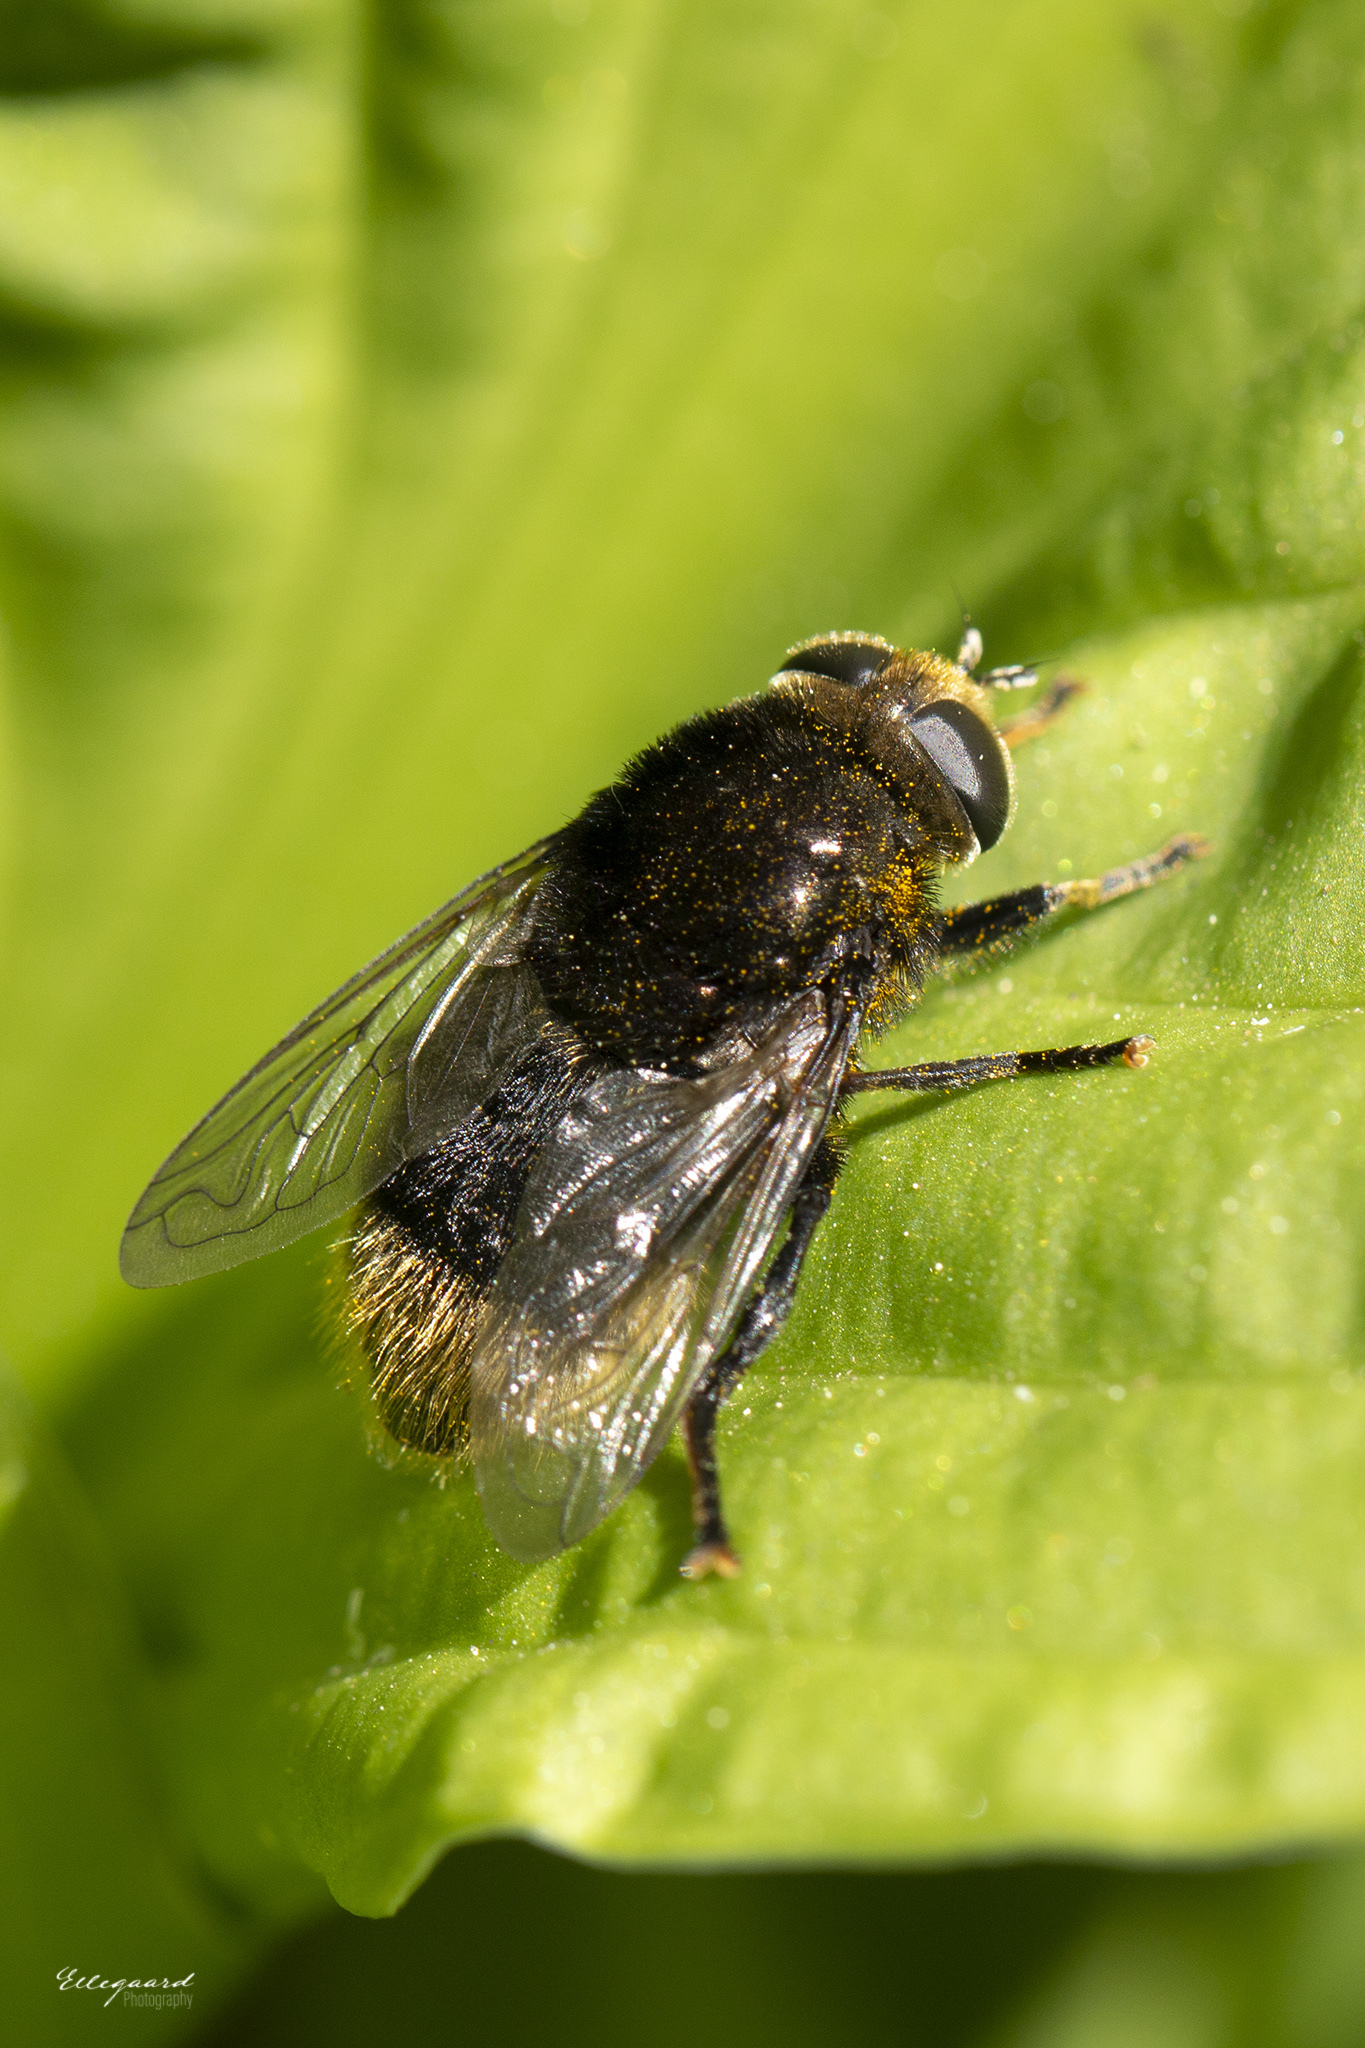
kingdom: Animalia
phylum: Arthropoda
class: Insecta
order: Diptera
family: Syrphidae
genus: Merodon
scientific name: Merodon equestris
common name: Greater bulb-fly
